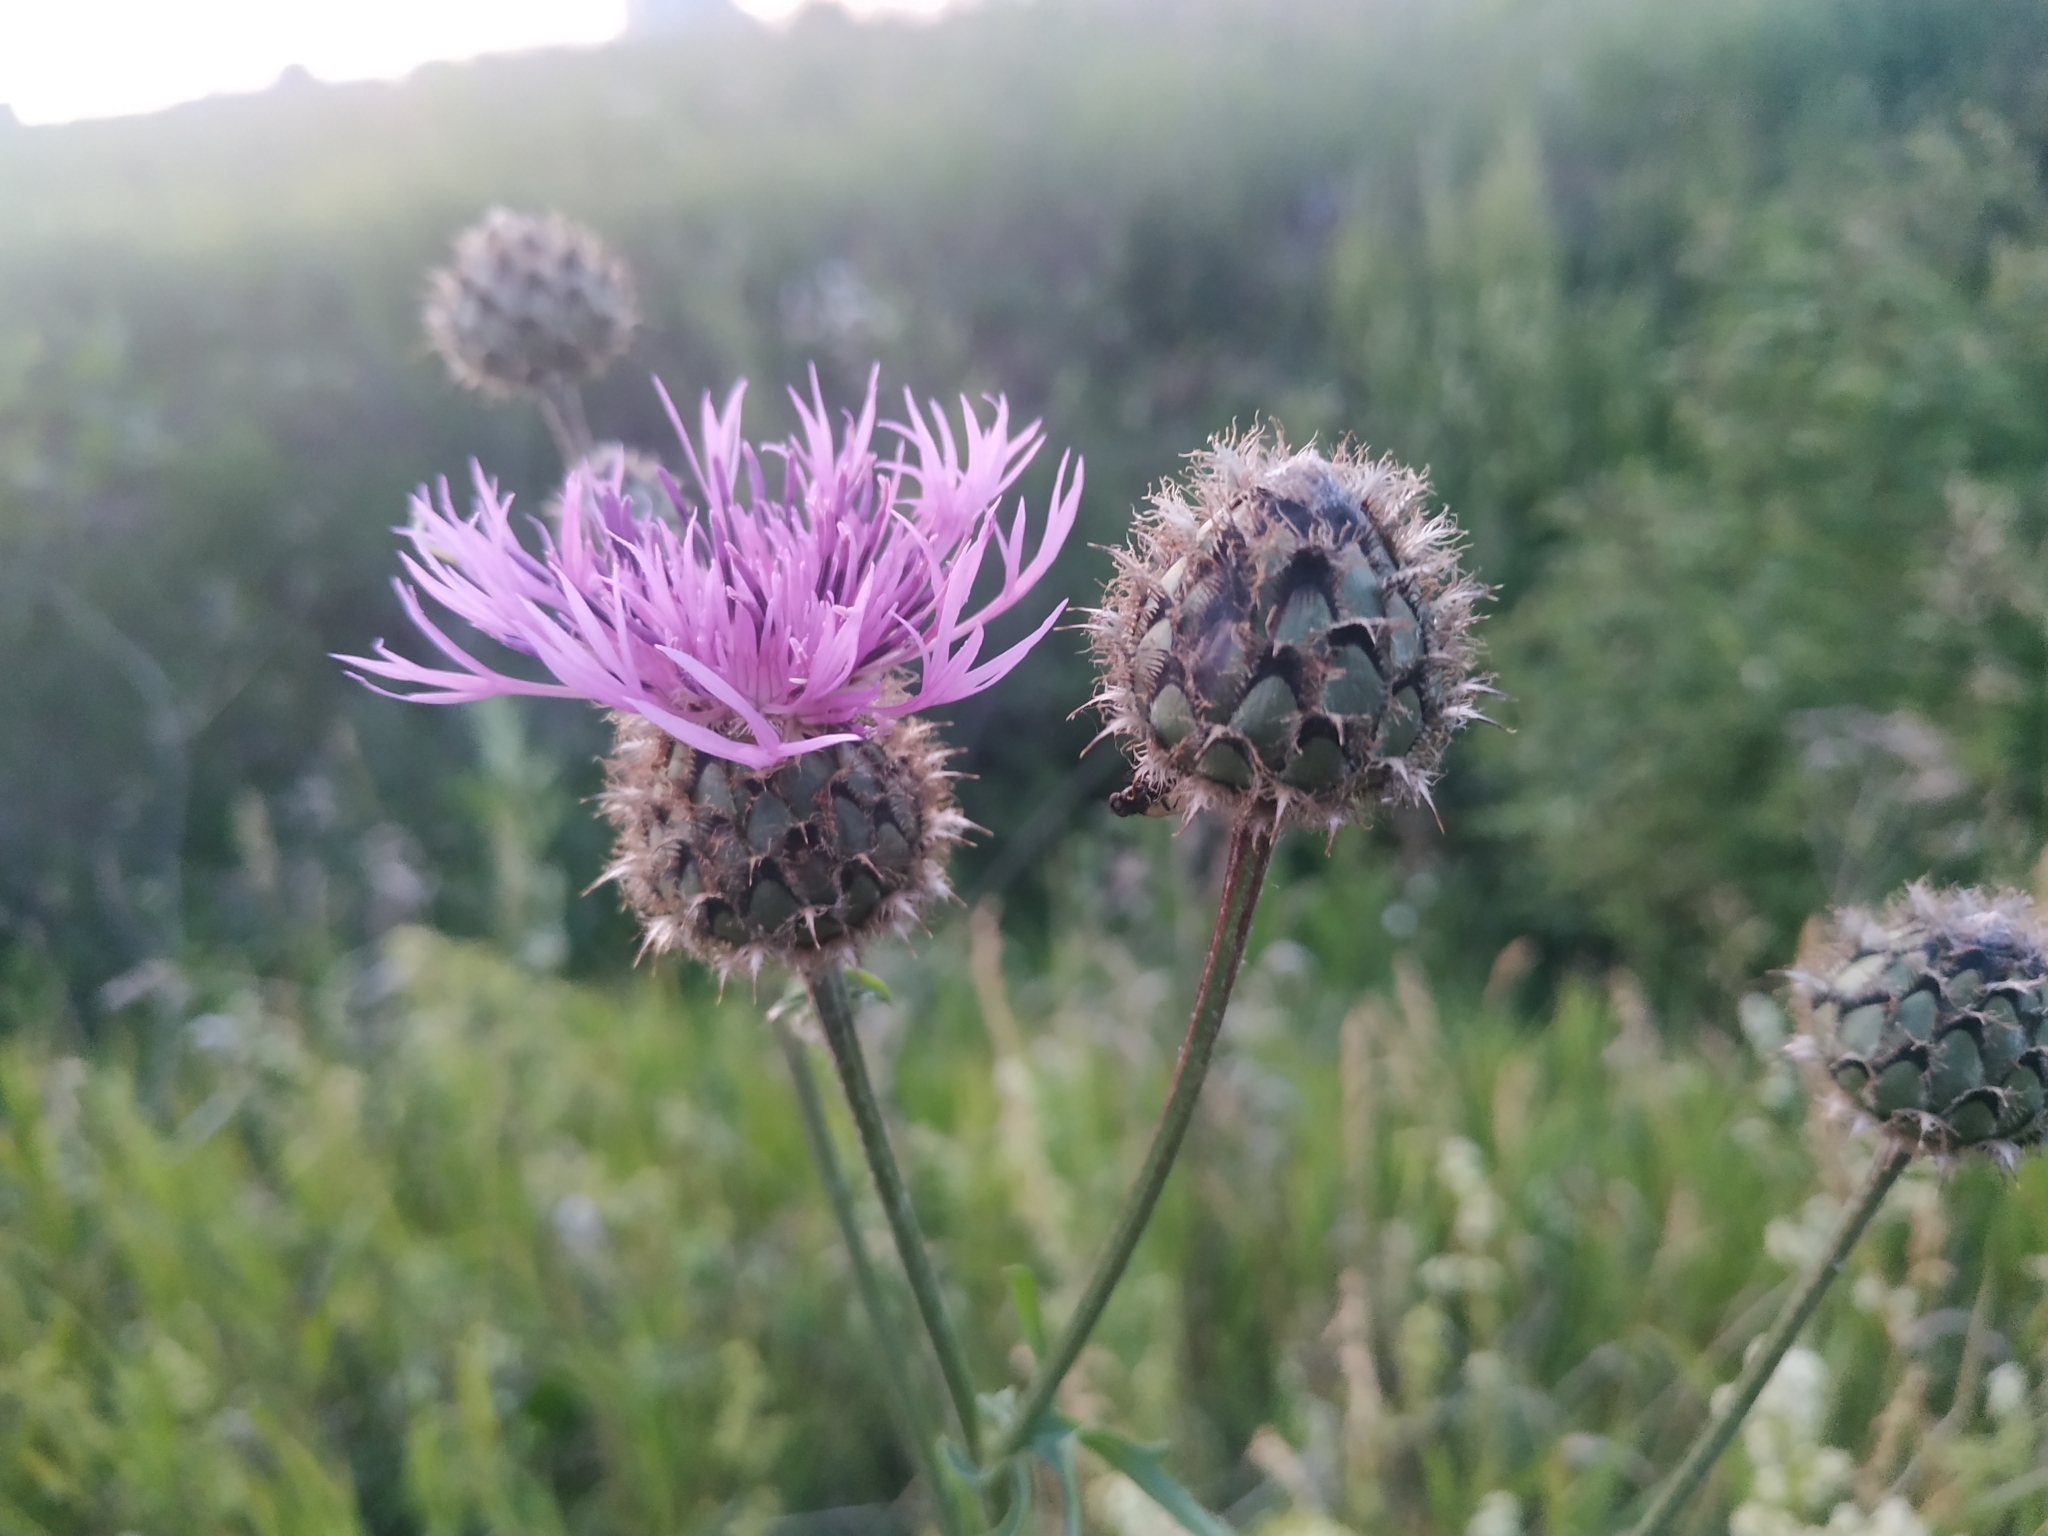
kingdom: Plantae
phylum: Tracheophyta
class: Magnoliopsida
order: Asterales
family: Asteraceae
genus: Centaurea
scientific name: Centaurea scabiosa
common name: Greater knapweed
